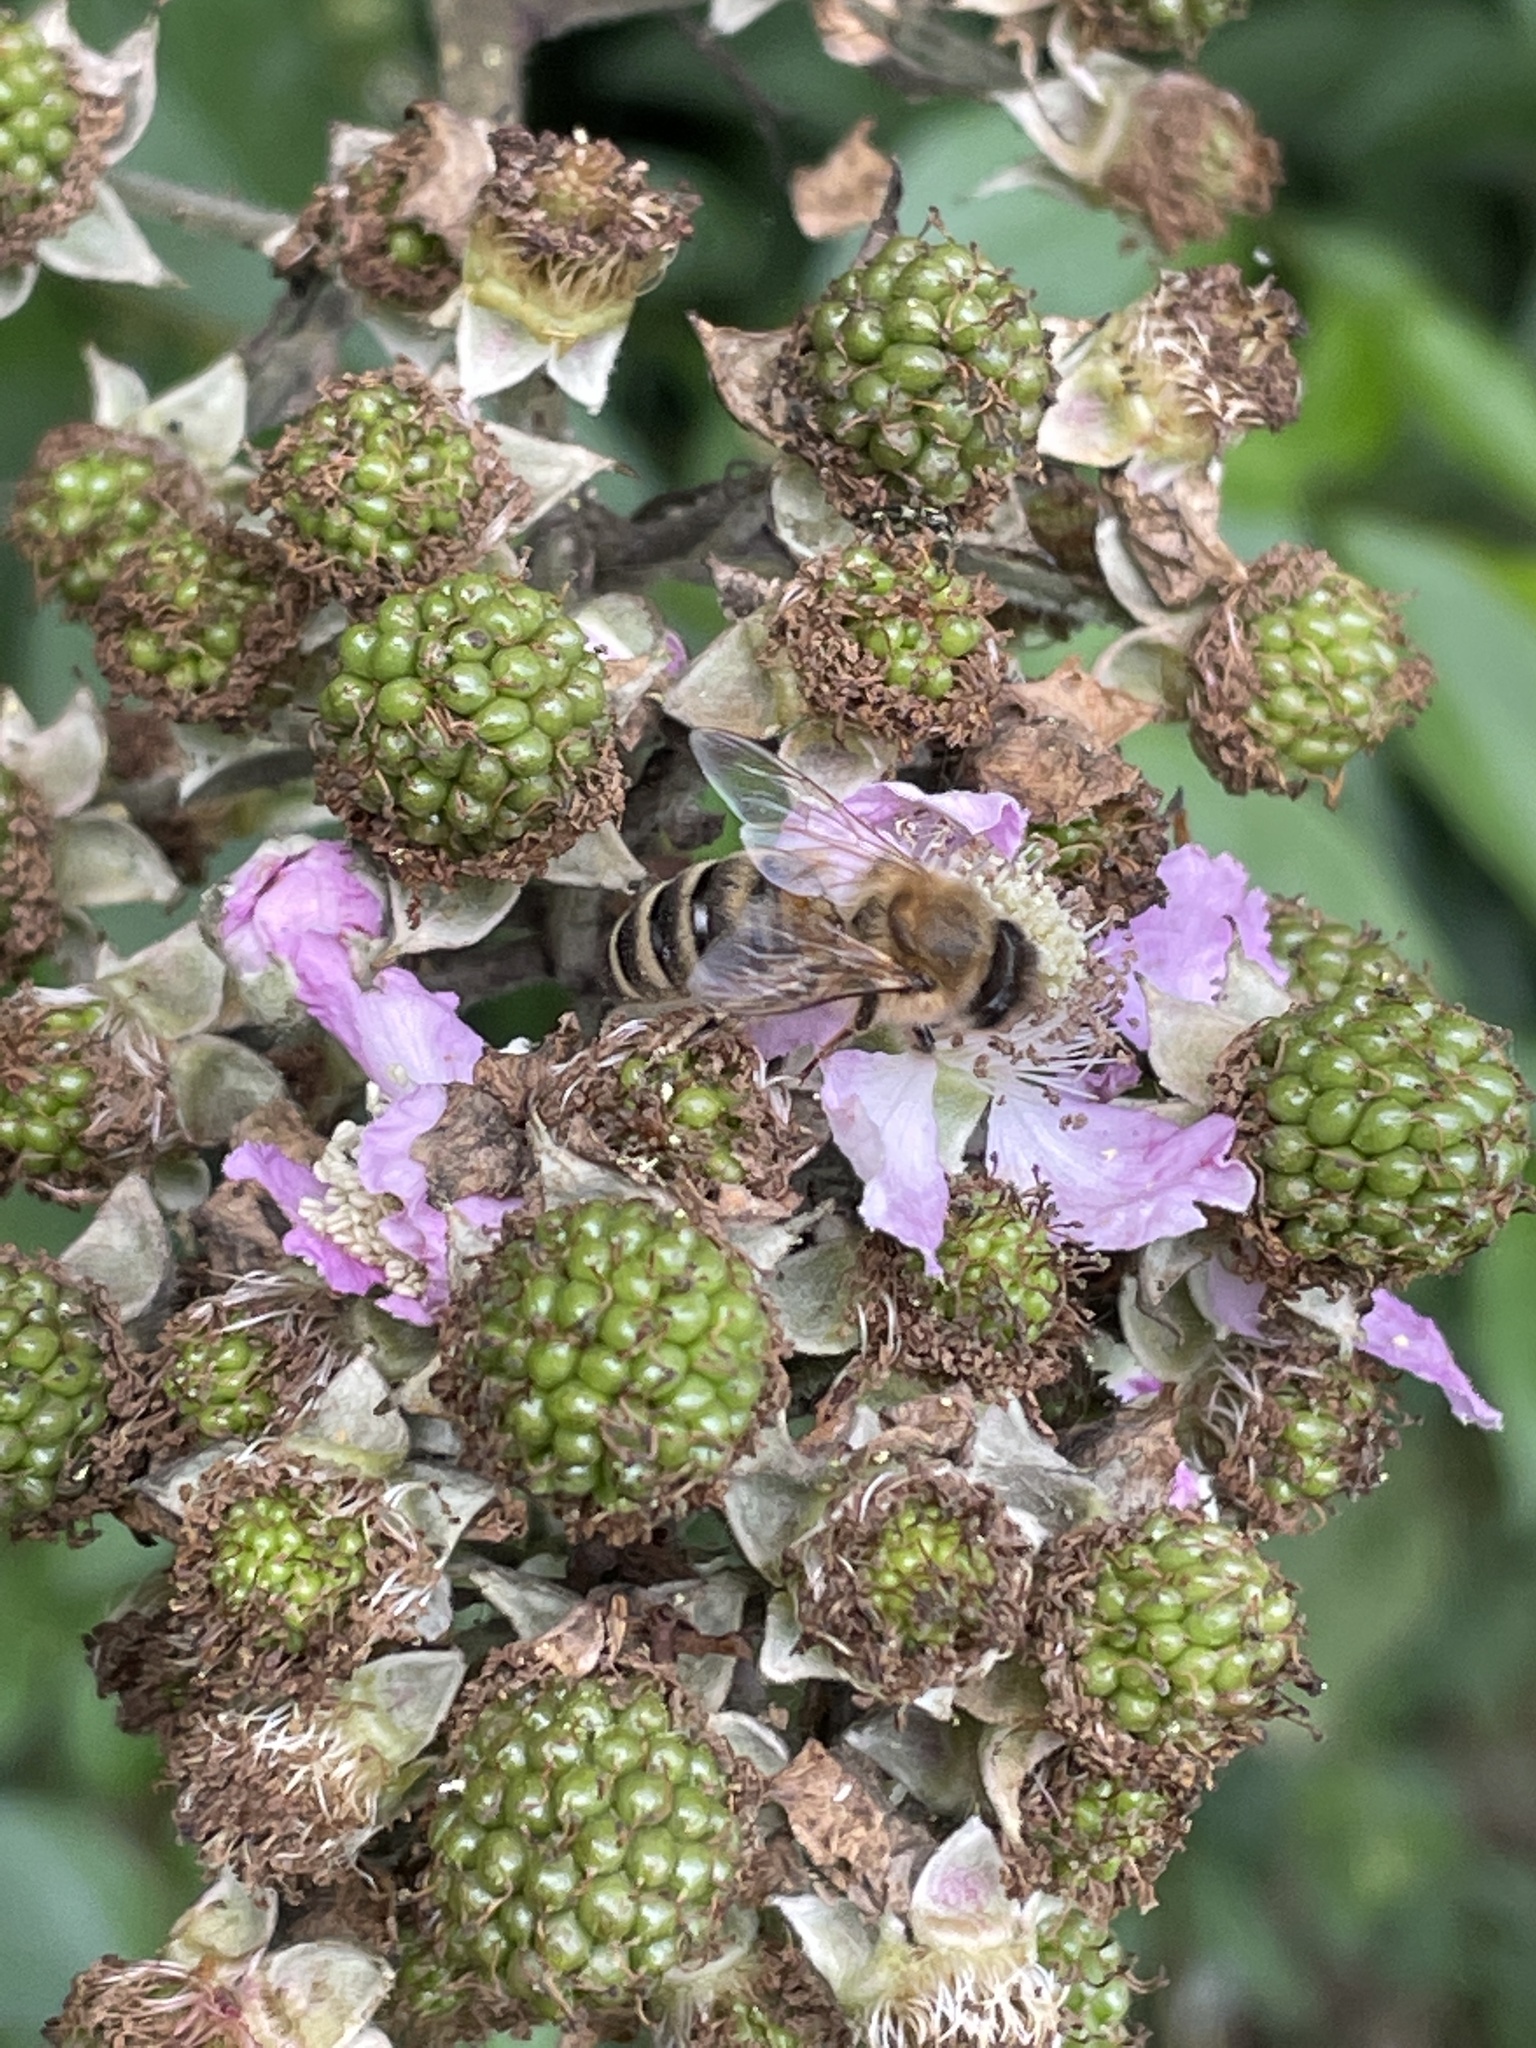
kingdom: Animalia
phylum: Arthropoda
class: Insecta
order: Hymenoptera
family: Apidae
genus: Apis
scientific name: Apis mellifera
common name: Honey bee
